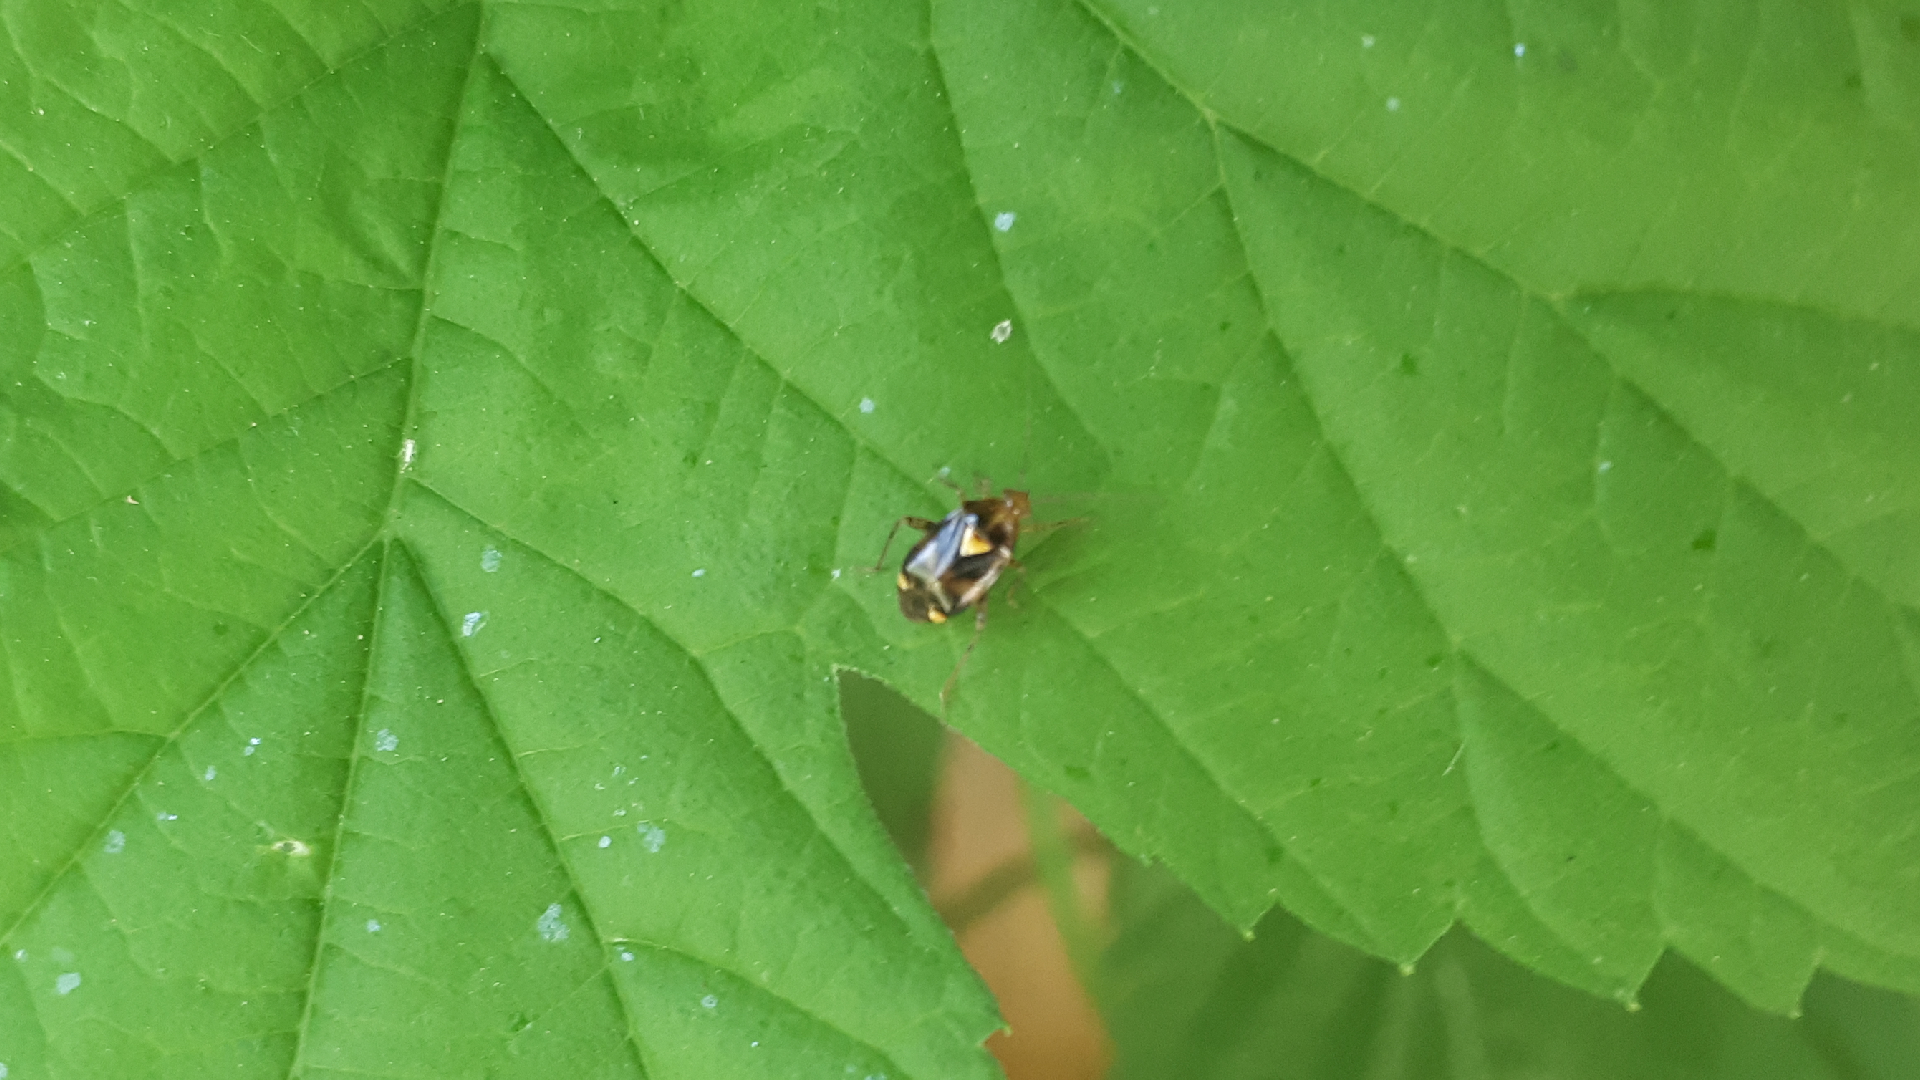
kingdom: Animalia
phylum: Arthropoda
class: Insecta
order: Hemiptera
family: Miridae
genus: Liocoris
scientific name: Liocoris tripustulatus
